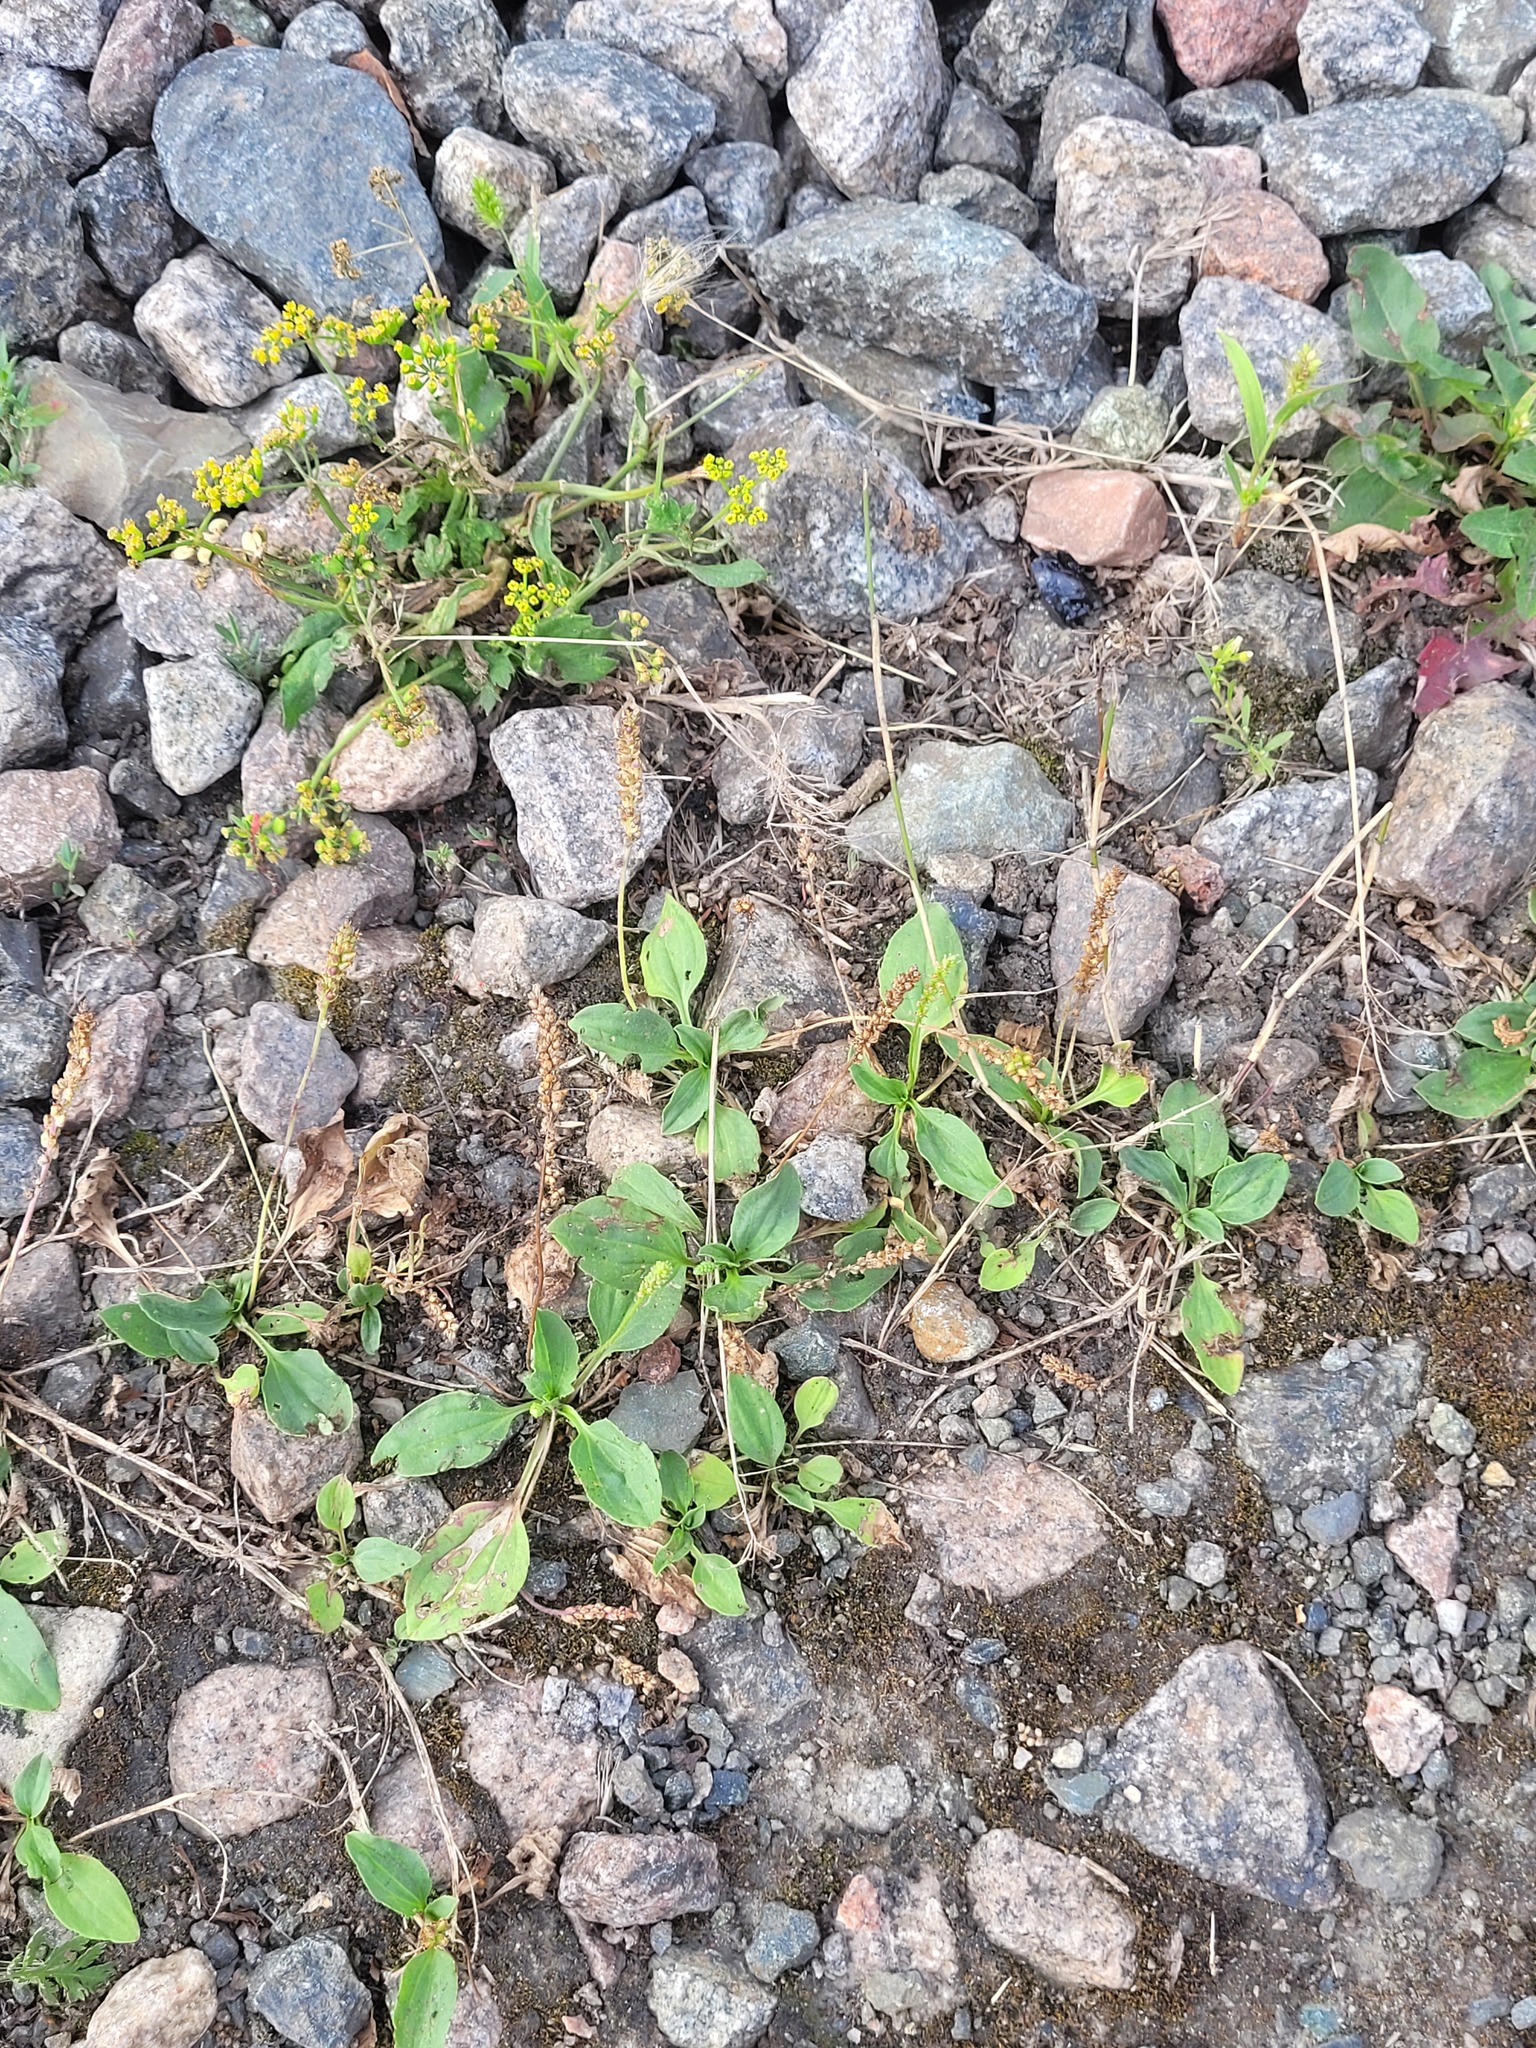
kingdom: Plantae
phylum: Tracheophyta
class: Magnoliopsida
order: Lamiales
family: Plantaginaceae
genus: Plantago
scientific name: Plantago major
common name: Common plantain
